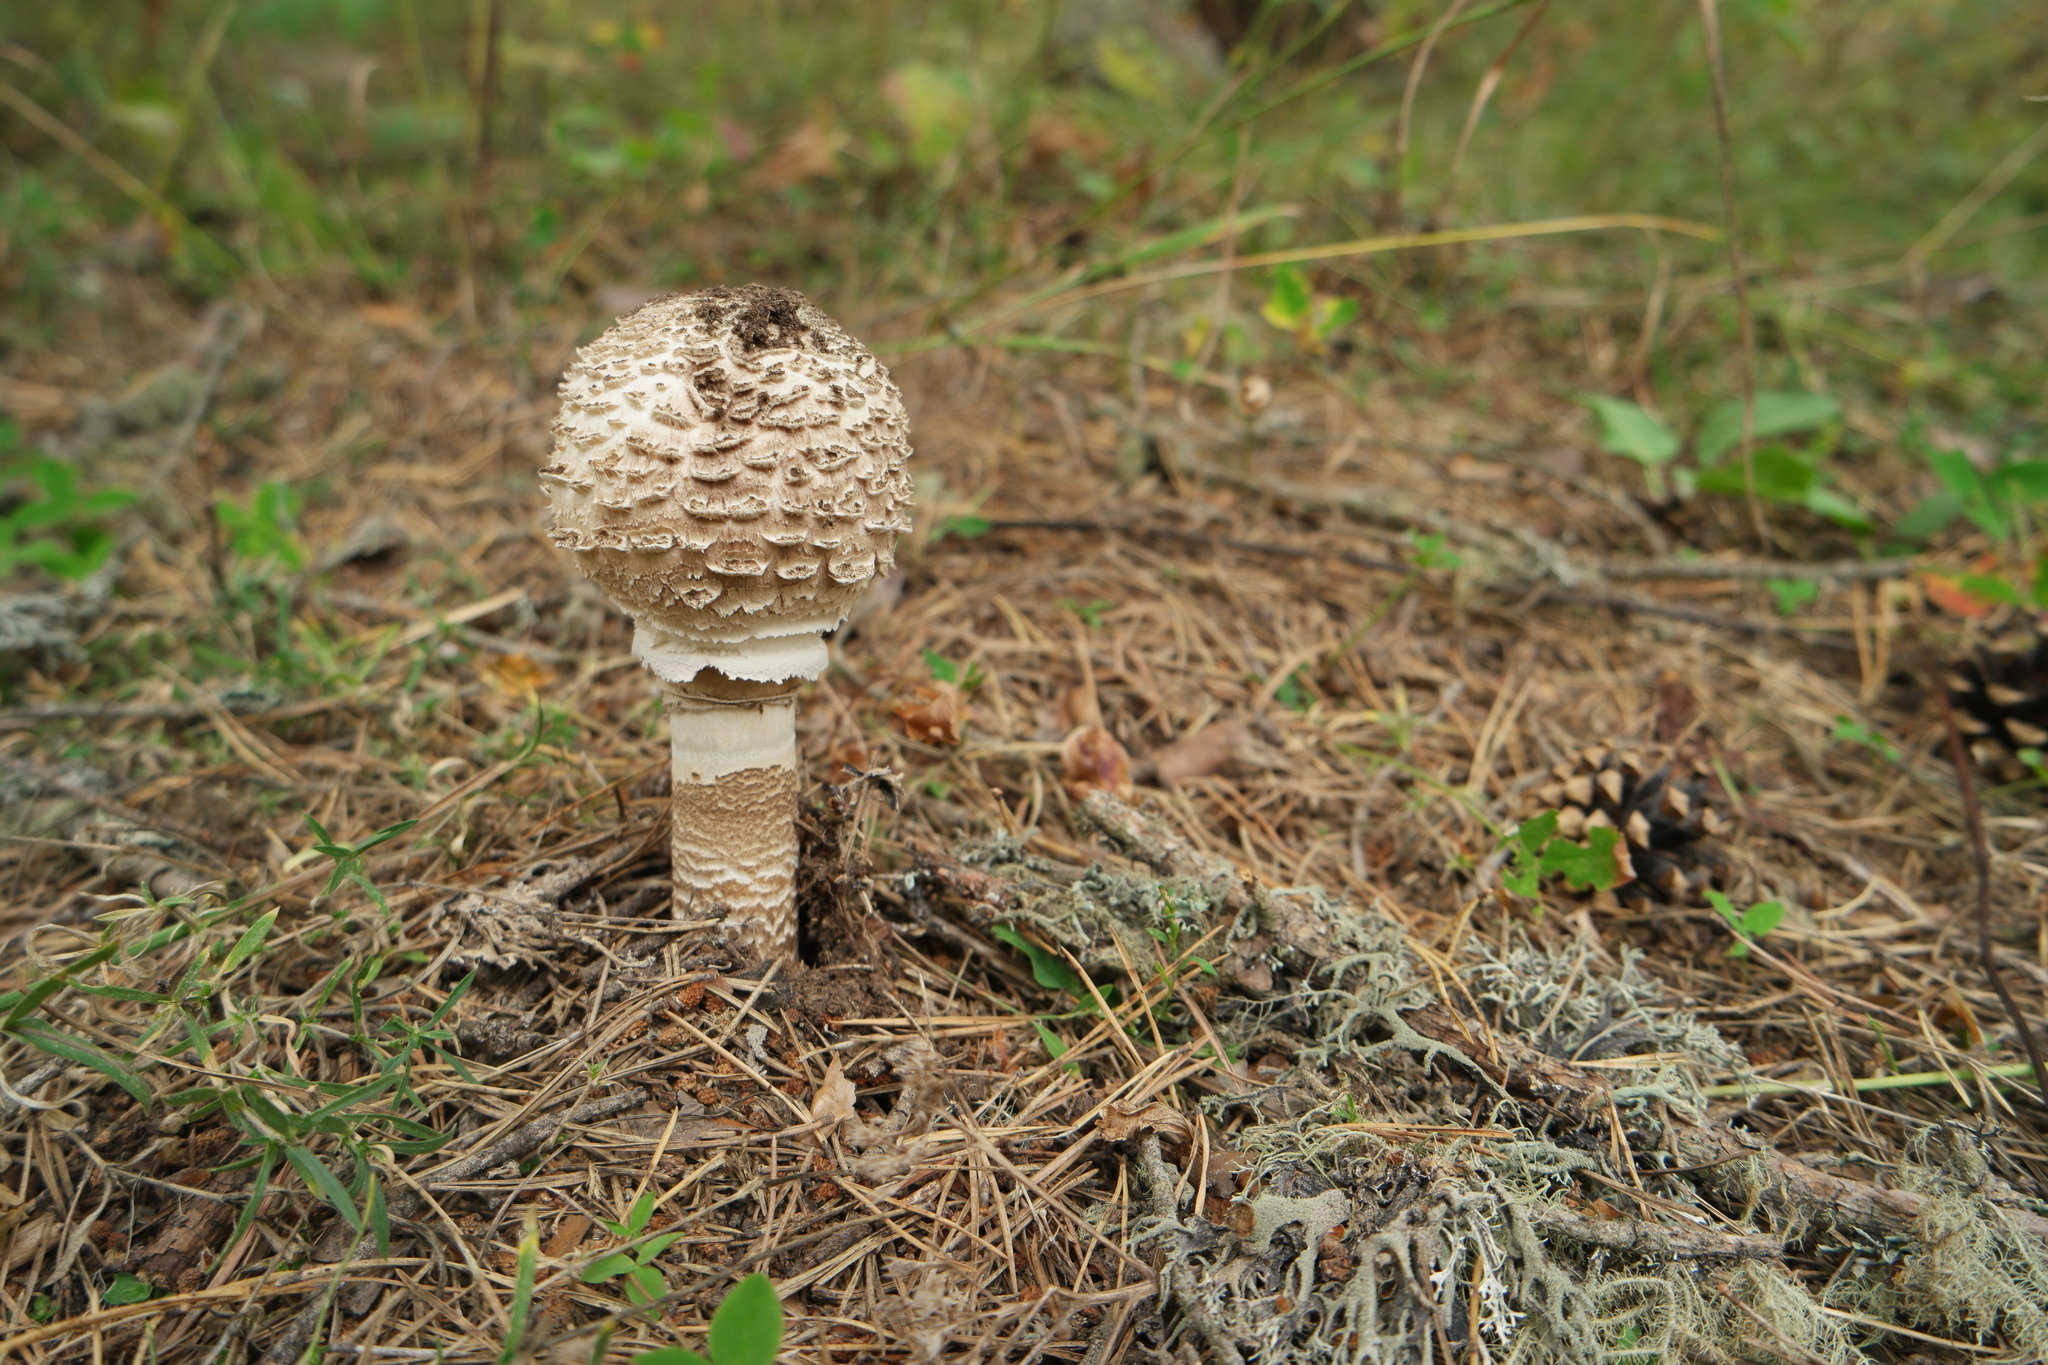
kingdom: Fungi
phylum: Basidiomycota
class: Agaricomycetes
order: Agaricales
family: Agaricaceae
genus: Macrolepiota
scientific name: Macrolepiota procera
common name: Parasol
